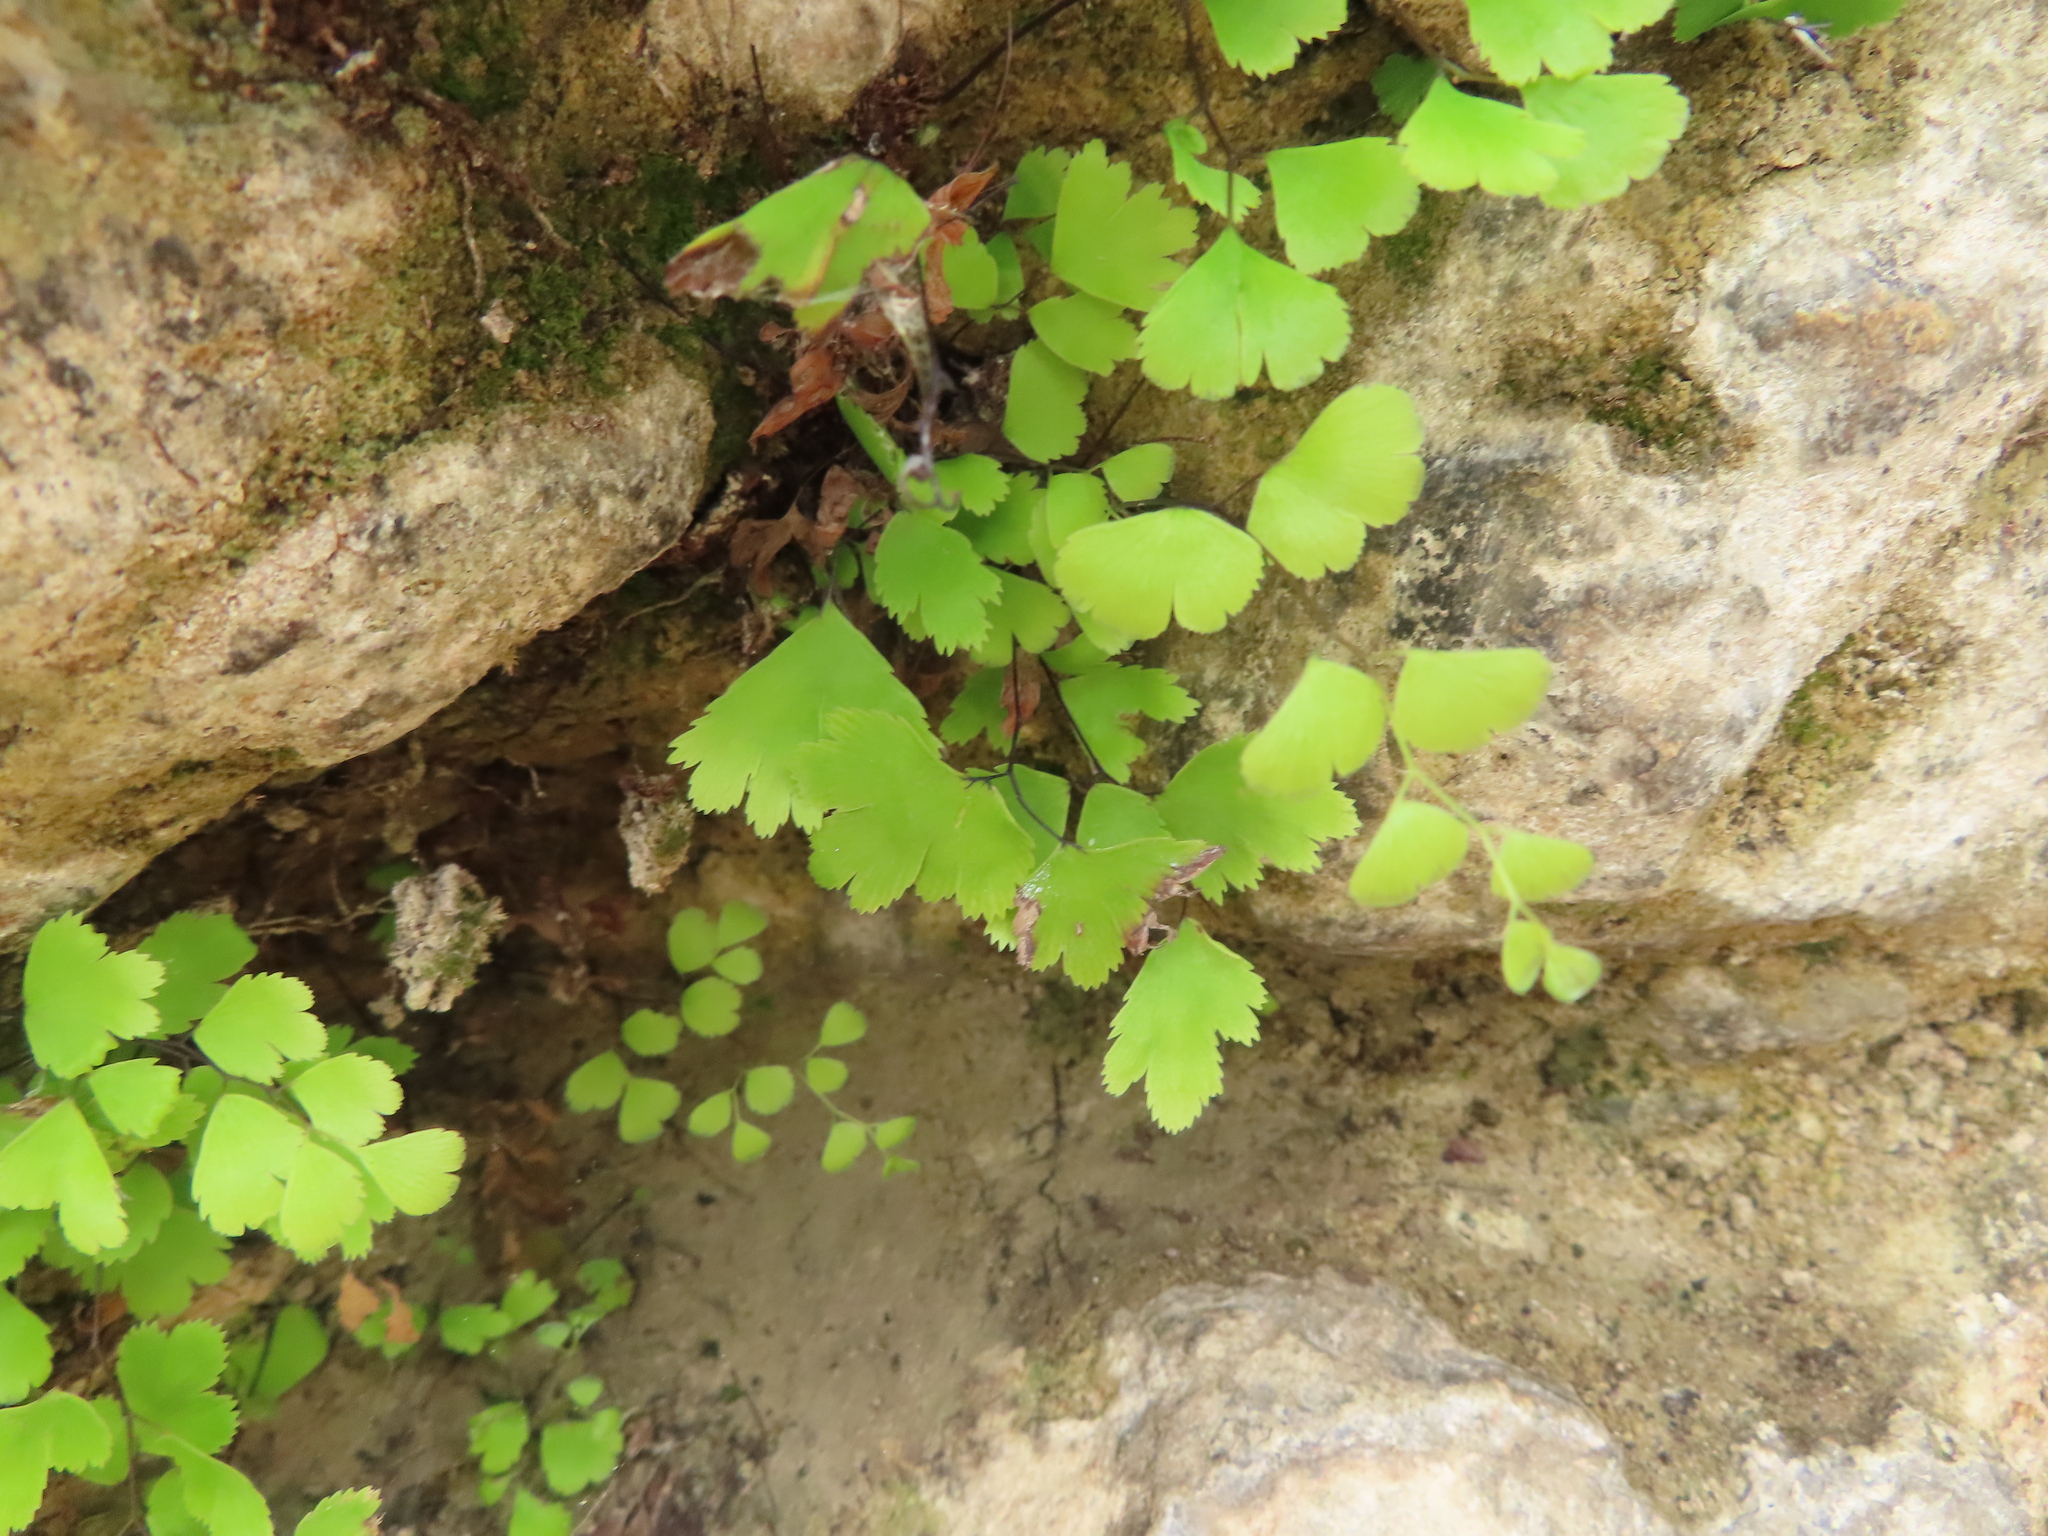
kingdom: Plantae
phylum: Tracheophyta
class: Polypodiopsida
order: Polypodiales
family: Pteridaceae
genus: Adiantum
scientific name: Adiantum capillus-veneris
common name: Maidenhair fern
